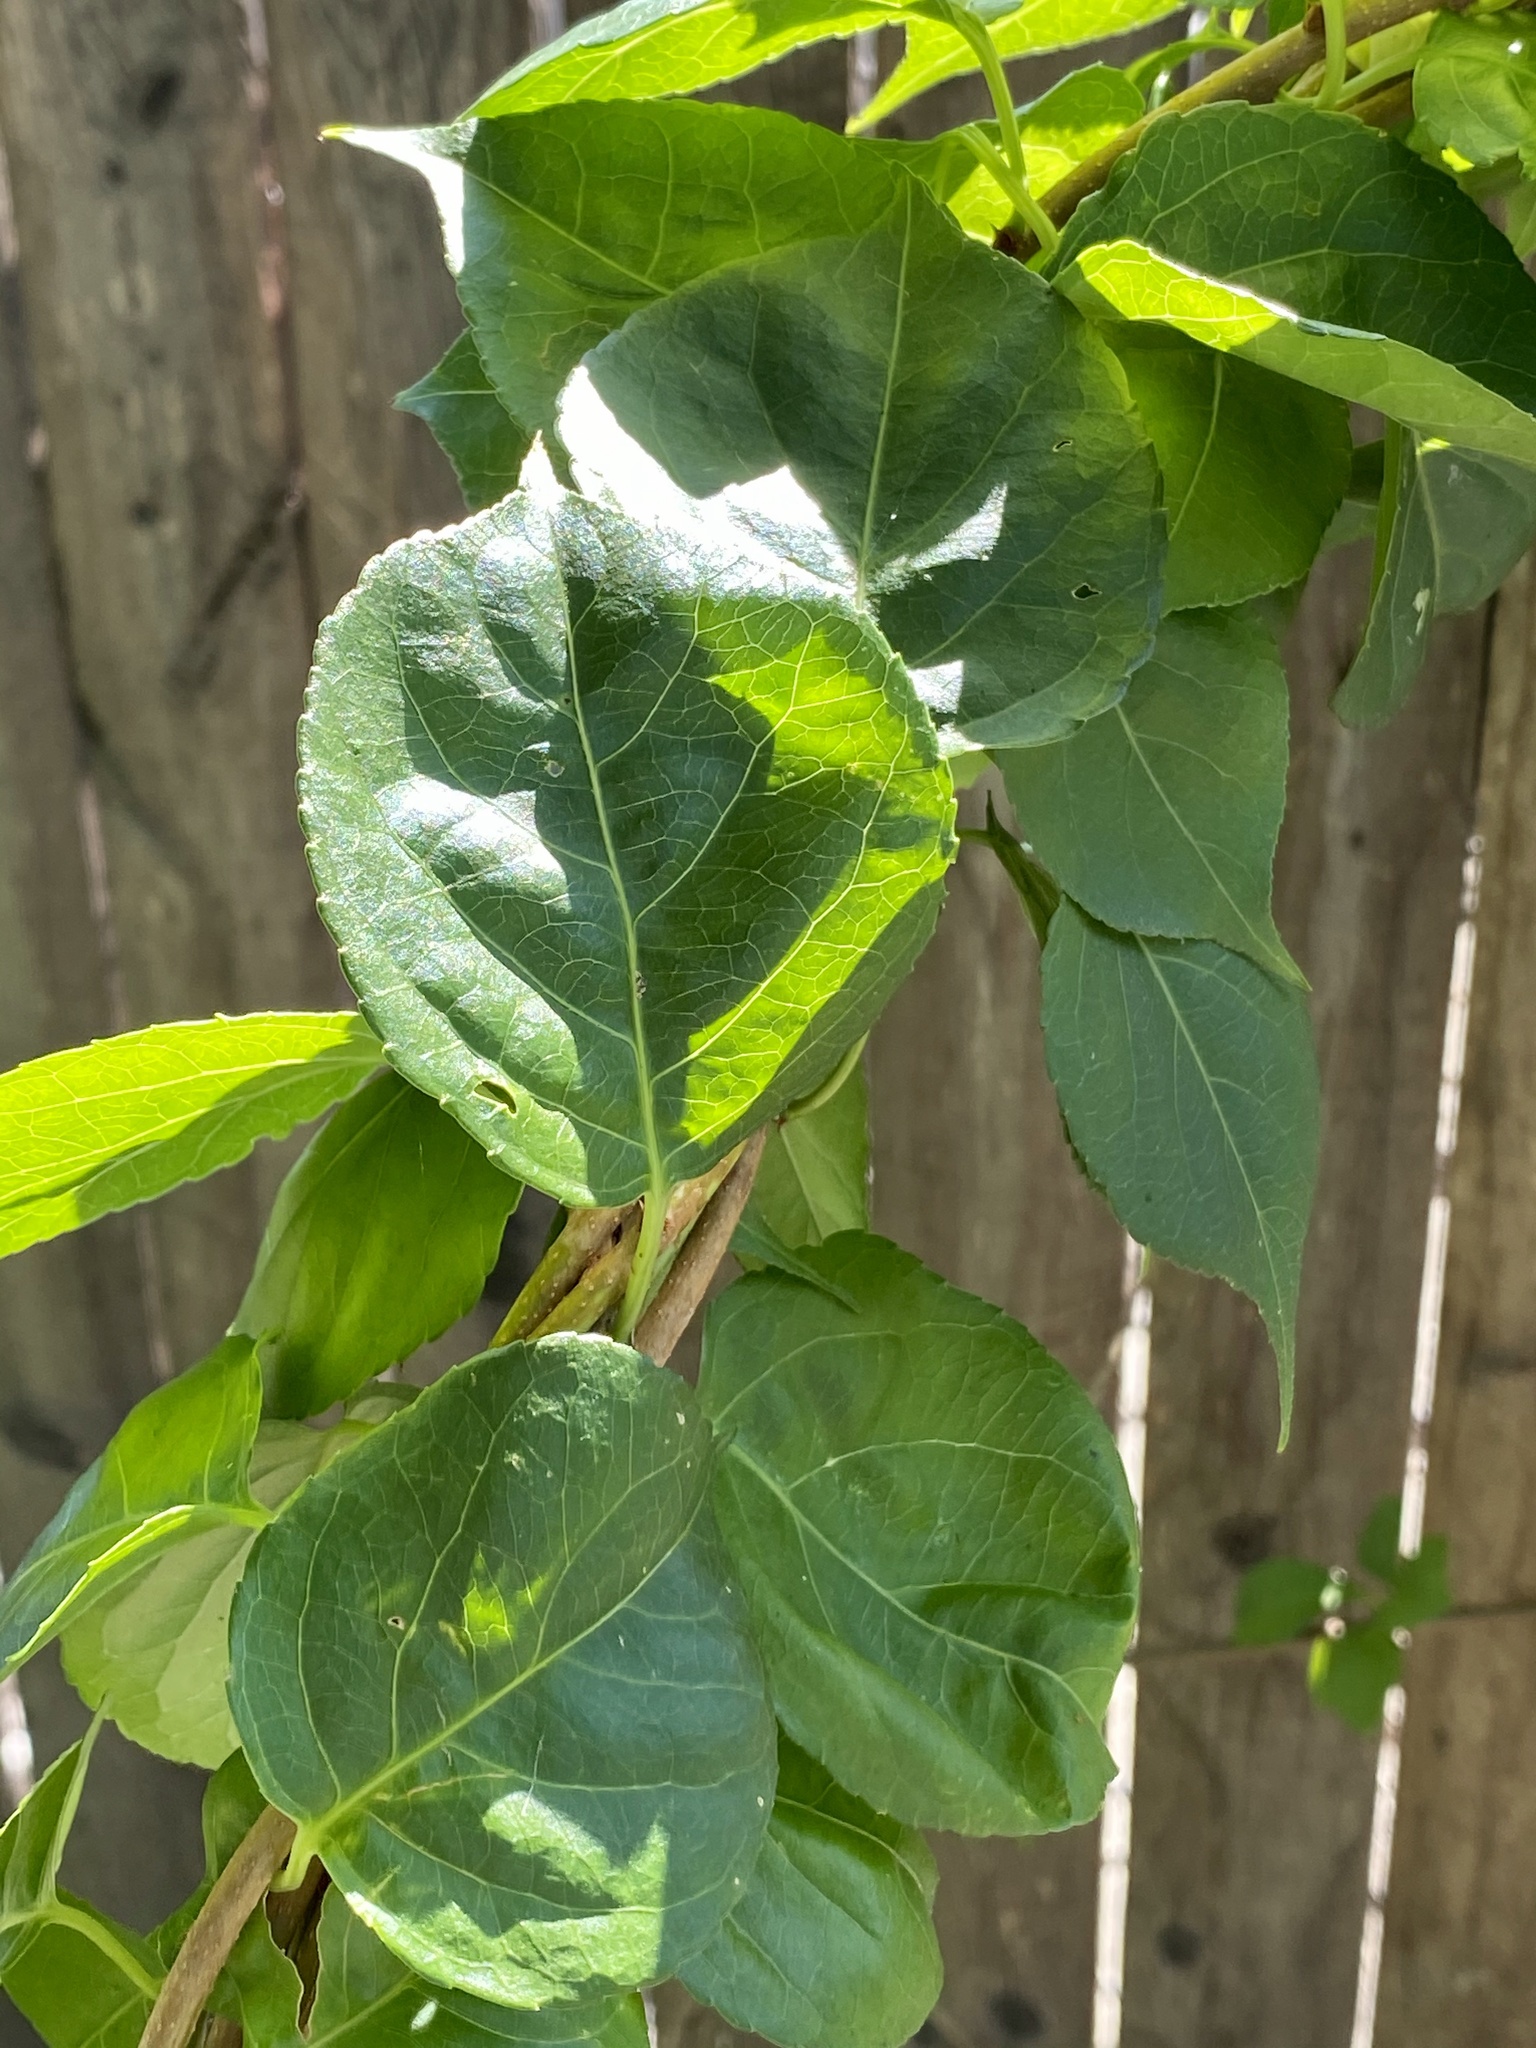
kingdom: Plantae
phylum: Tracheophyta
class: Magnoliopsida
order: Celastrales
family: Celastraceae
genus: Celastrus
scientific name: Celastrus orbiculatus
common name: Oriental bittersweet
